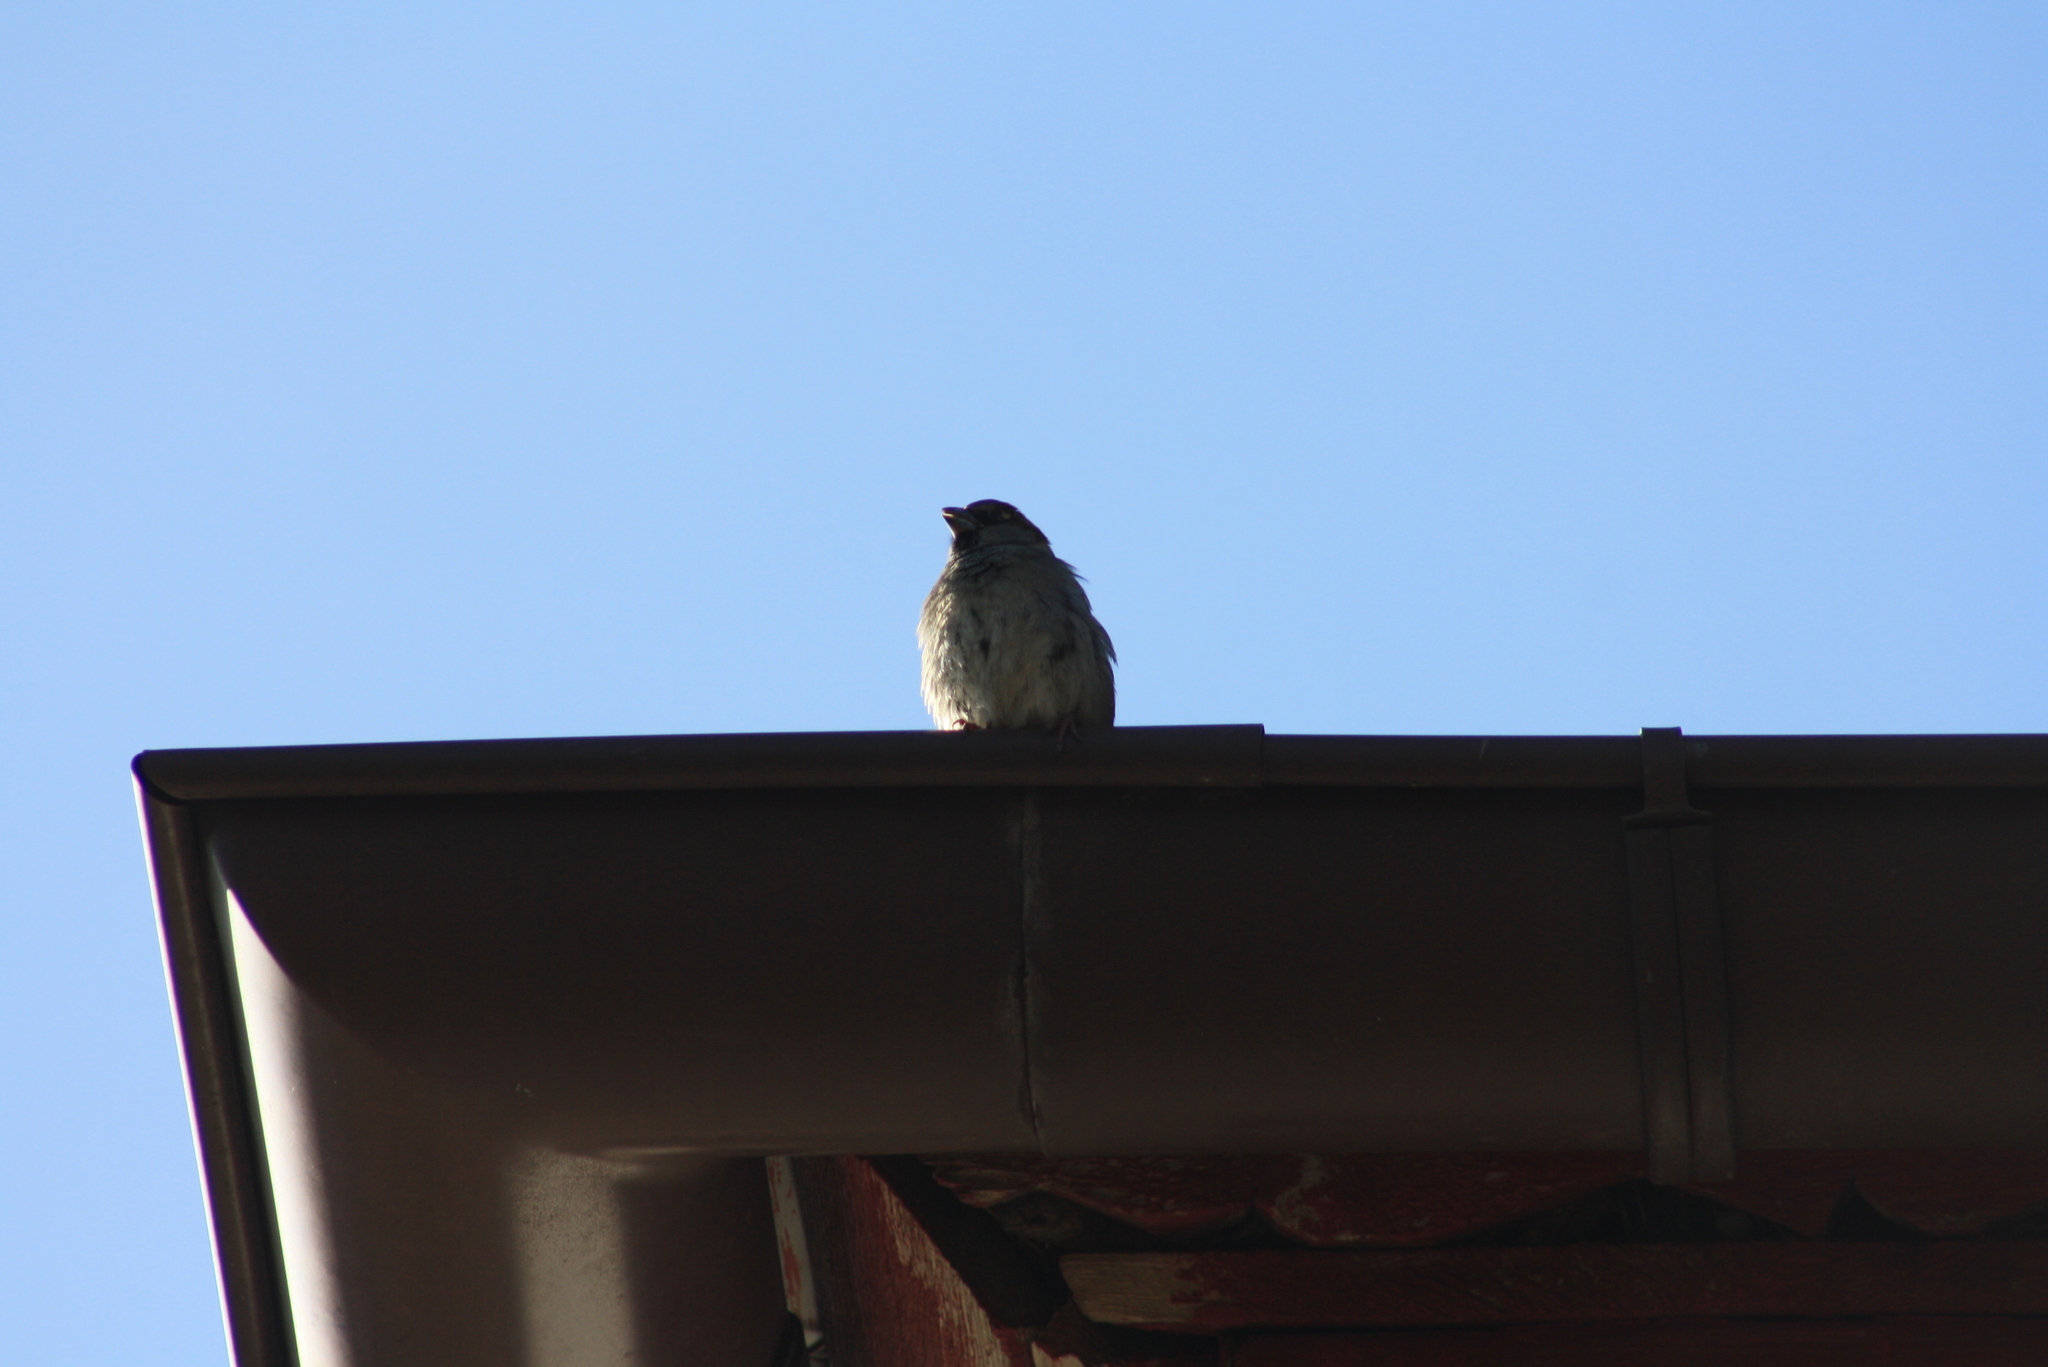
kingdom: Animalia
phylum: Chordata
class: Aves
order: Passeriformes
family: Passeridae
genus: Passer
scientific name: Passer domesticus
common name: House sparrow
